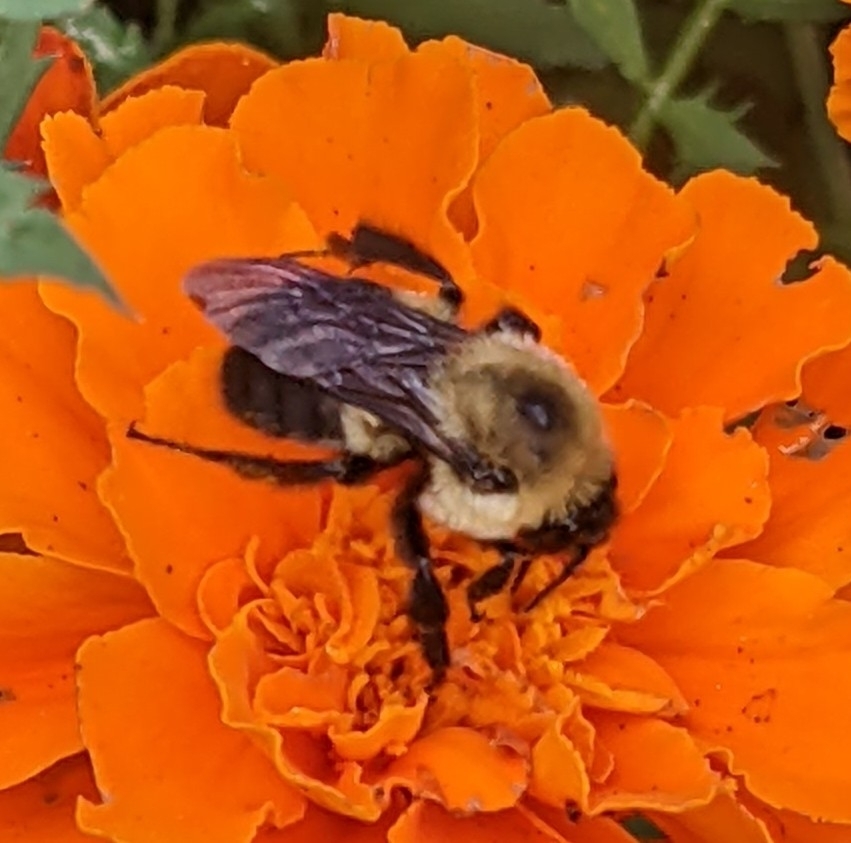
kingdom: Animalia
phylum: Arthropoda
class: Insecta
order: Hymenoptera
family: Apidae
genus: Bombus
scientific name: Bombus griseocollis
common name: Brown-belted bumble bee
